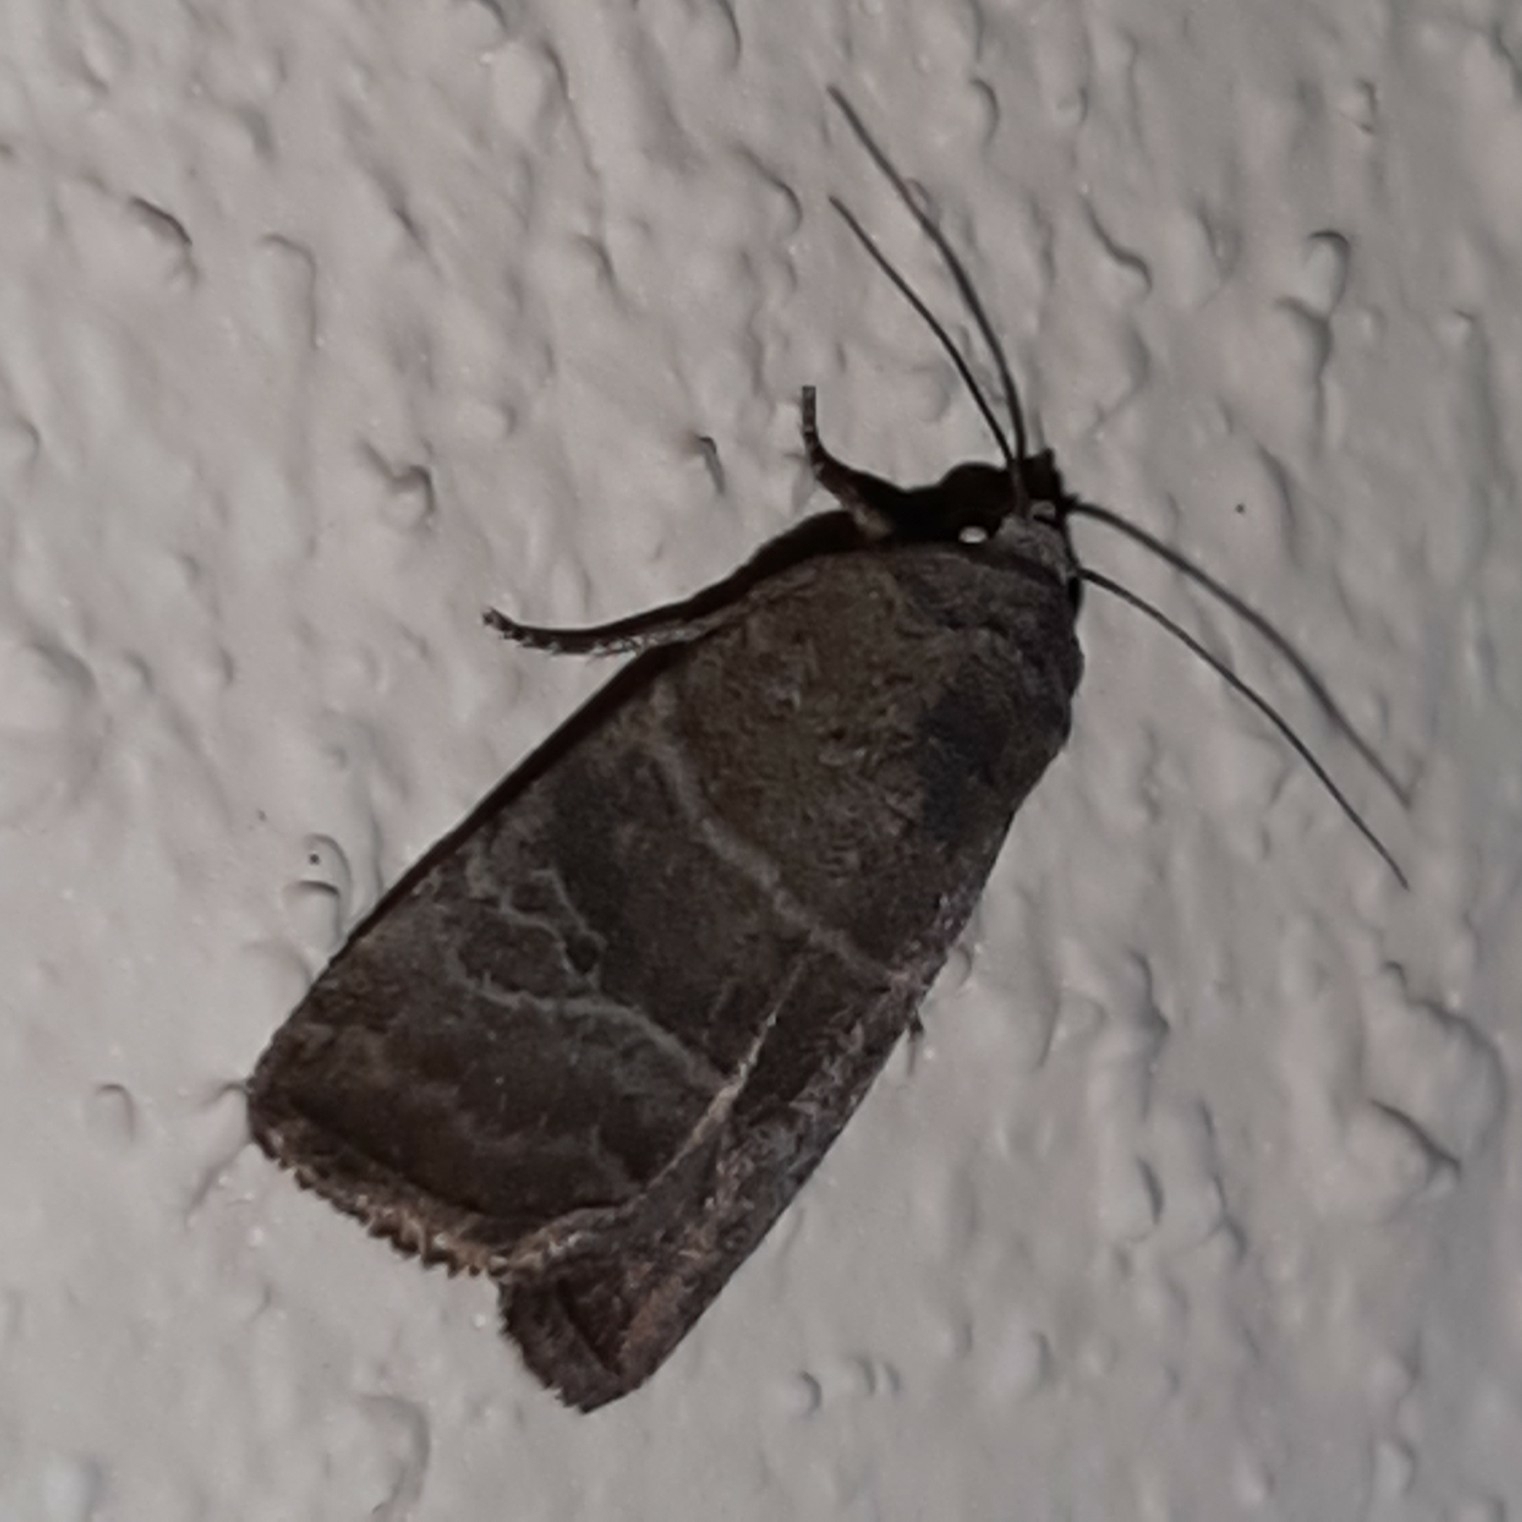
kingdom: Animalia
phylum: Arthropoda
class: Insecta
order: Lepidoptera
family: Noctuidae
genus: Elaphria
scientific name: Elaphria grata
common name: Grateful midget moth
